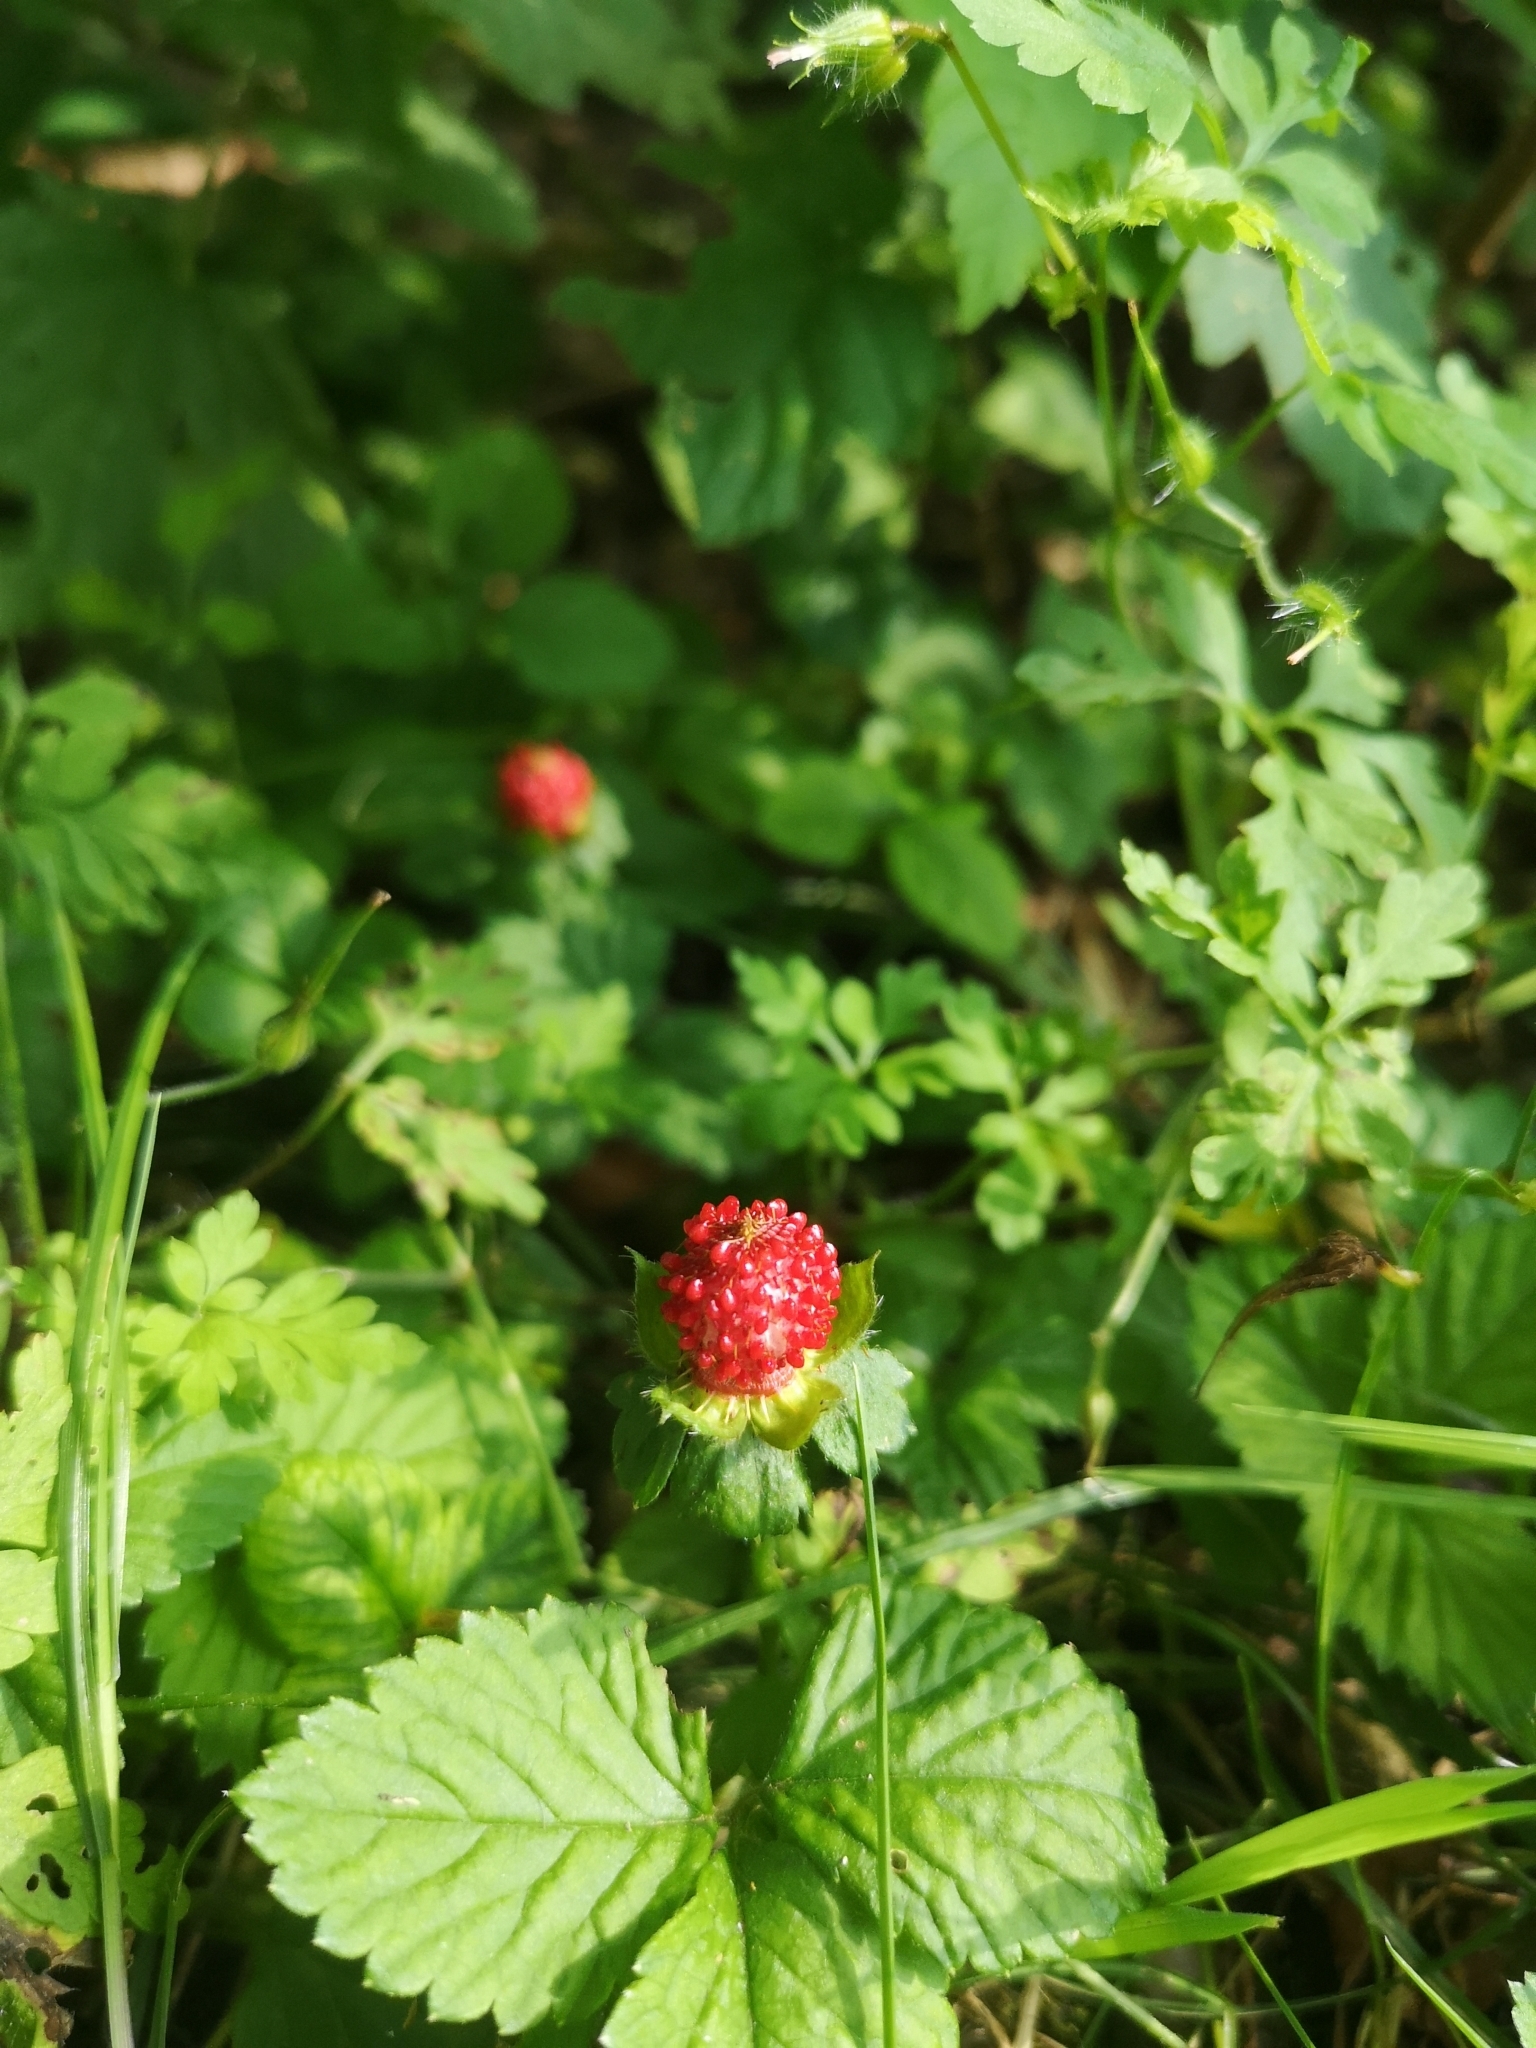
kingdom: Plantae
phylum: Tracheophyta
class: Magnoliopsida
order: Rosales
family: Rosaceae
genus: Potentilla
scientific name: Potentilla indica
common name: Yellow-flowered strawberry
